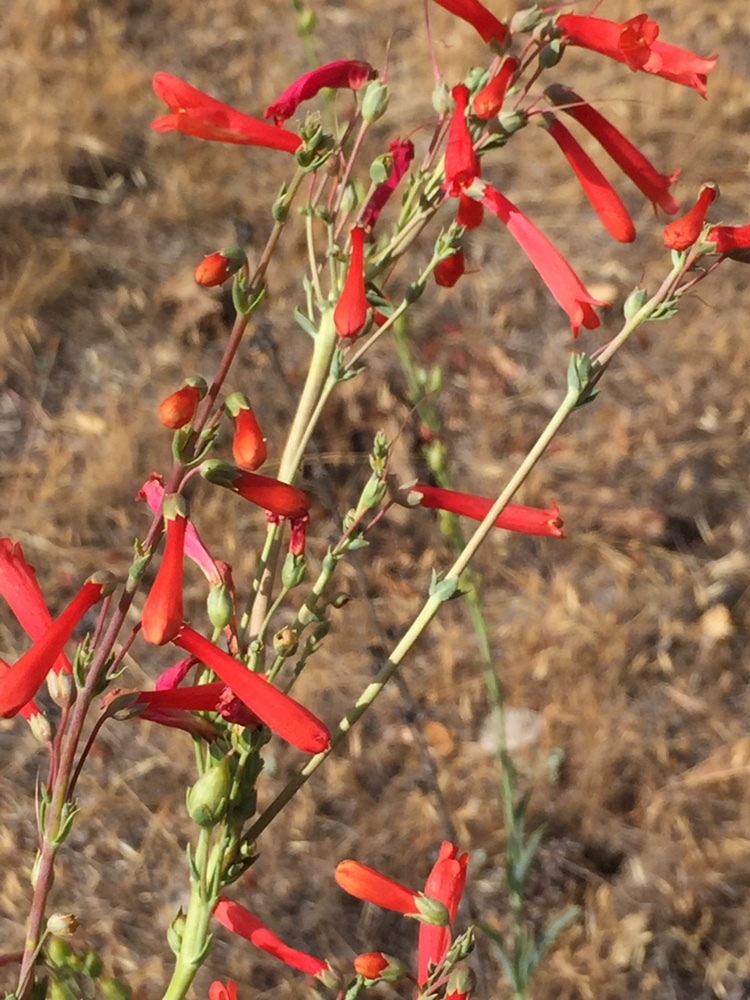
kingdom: Plantae
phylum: Tracheophyta
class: Magnoliopsida
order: Lamiales
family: Plantaginaceae
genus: Penstemon
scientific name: Penstemon centranthifolius
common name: Scarlet bugler
